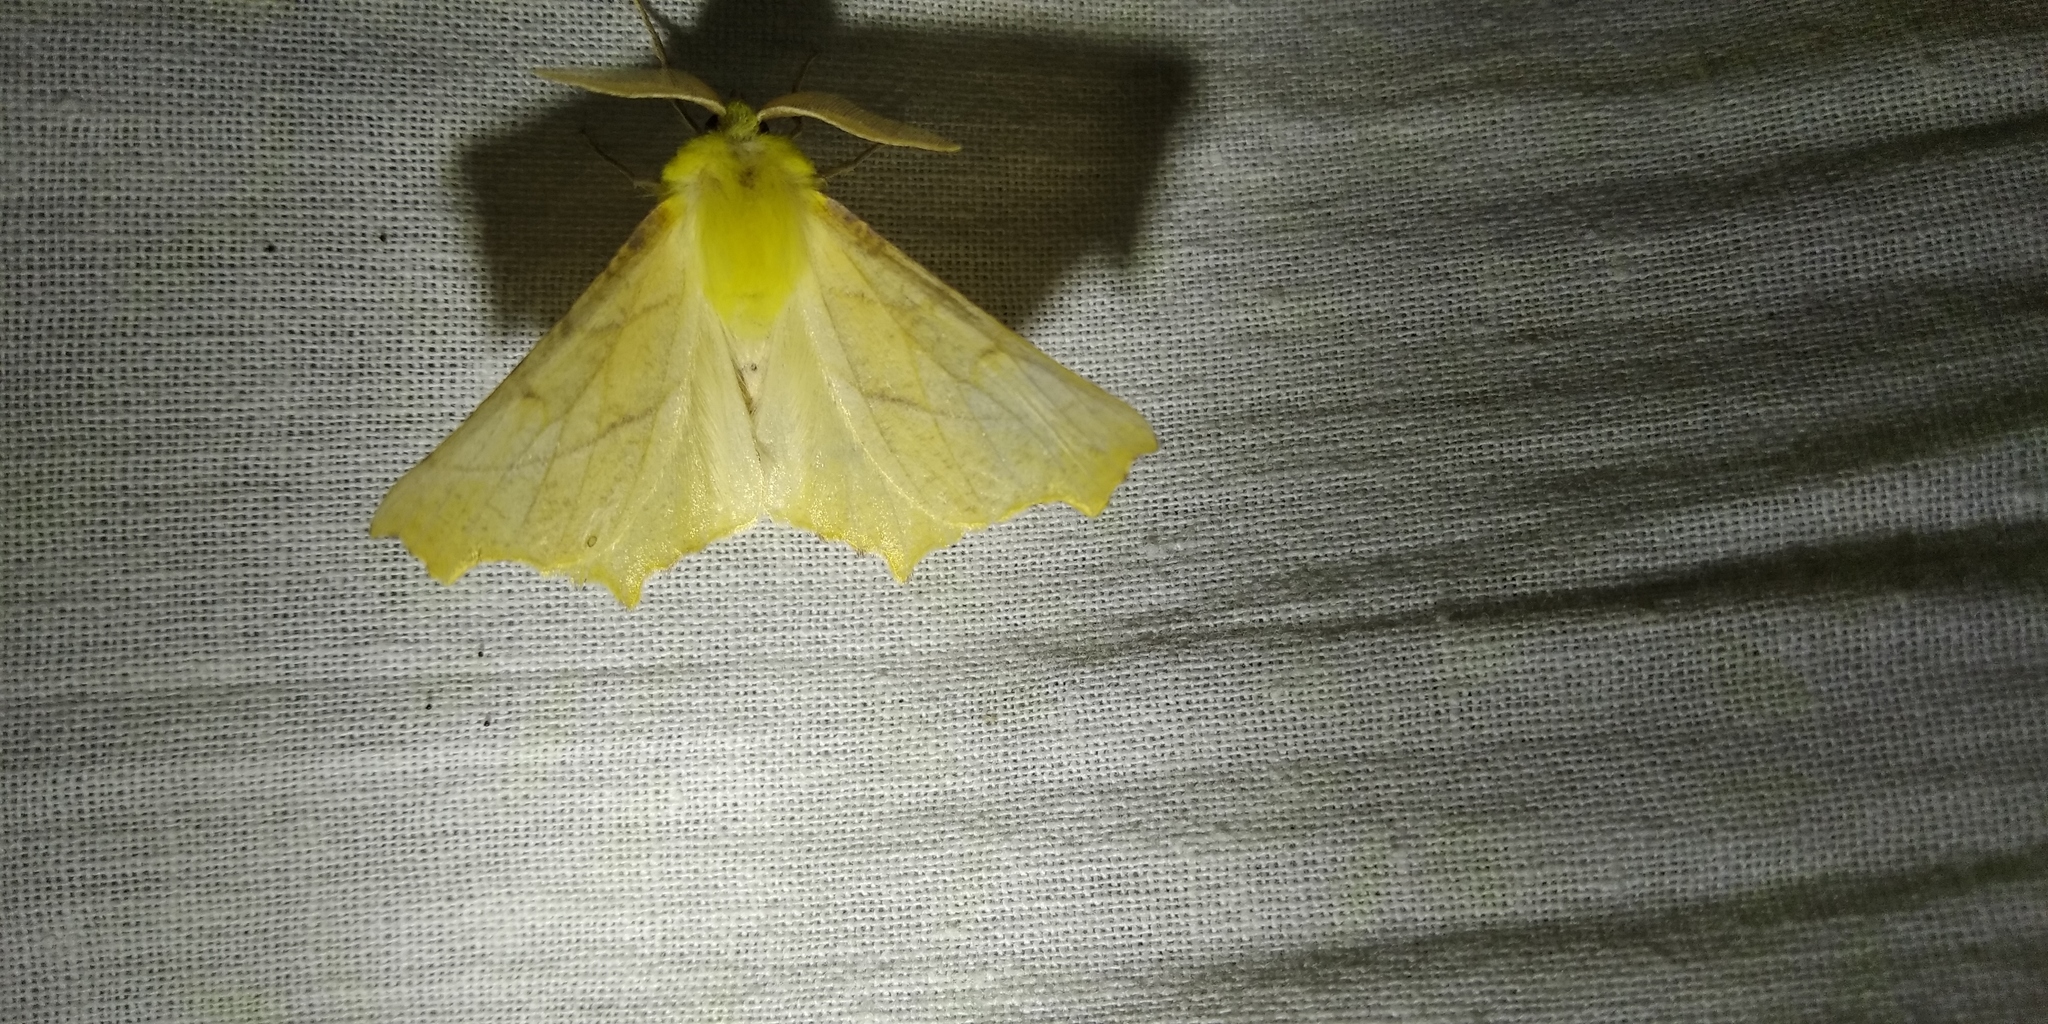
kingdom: Animalia
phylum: Arthropoda
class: Insecta
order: Lepidoptera
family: Geometridae
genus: Ennomos
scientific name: Ennomos alniaria
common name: Canary-shouldered thorn
